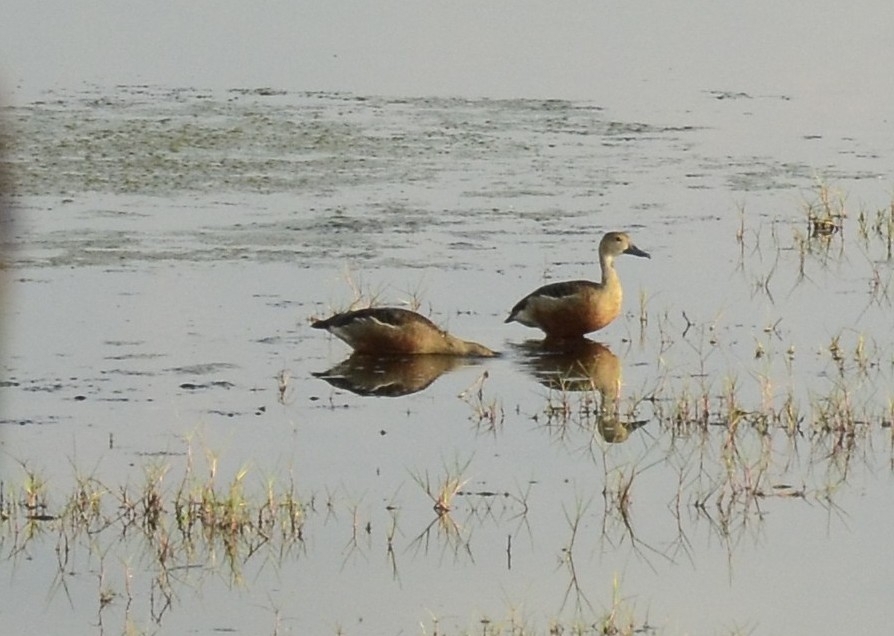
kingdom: Animalia
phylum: Chordata
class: Aves
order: Anseriformes
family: Anatidae
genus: Dendrocygna
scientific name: Dendrocygna javanica
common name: Lesser whistling-duck
